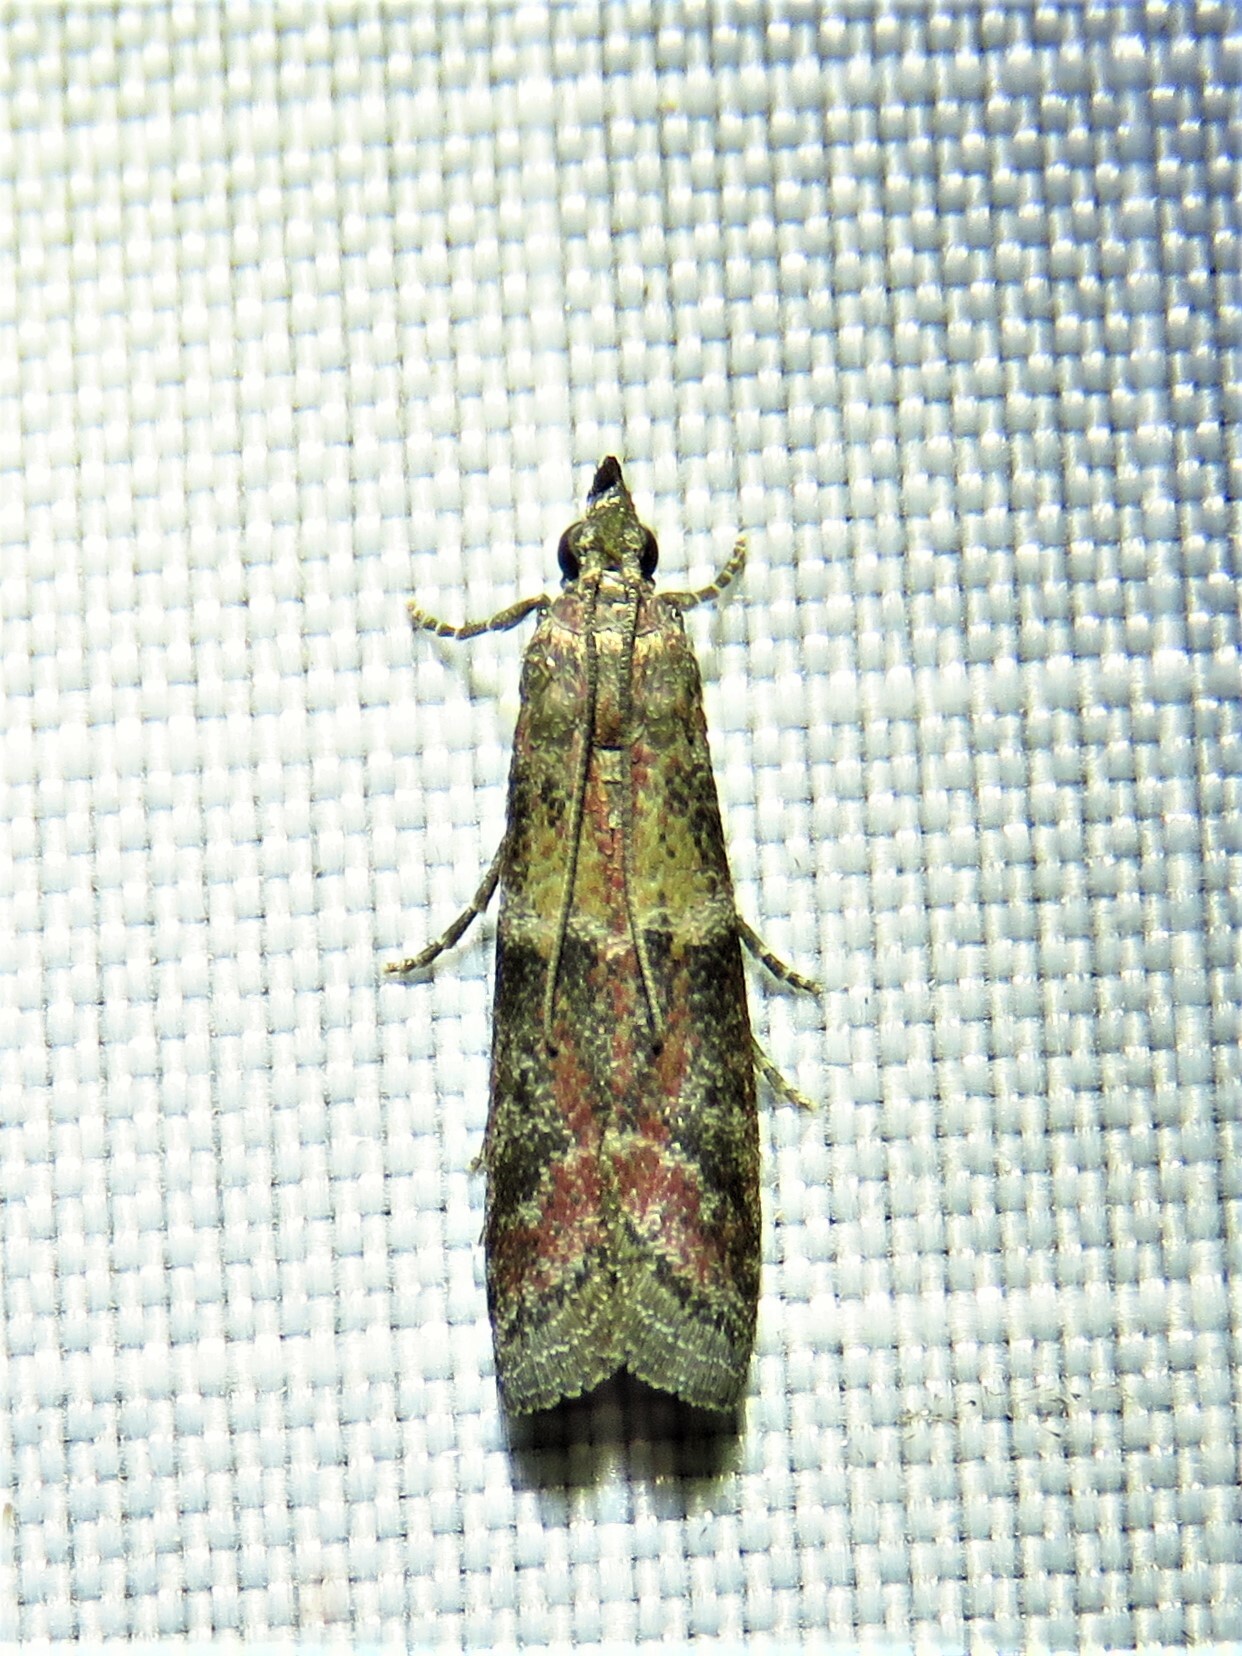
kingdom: Animalia
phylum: Arthropoda
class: Insecta
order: Lepidoptera
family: Pyralidae
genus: Ephestiodes
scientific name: Ephestiodes infimella
